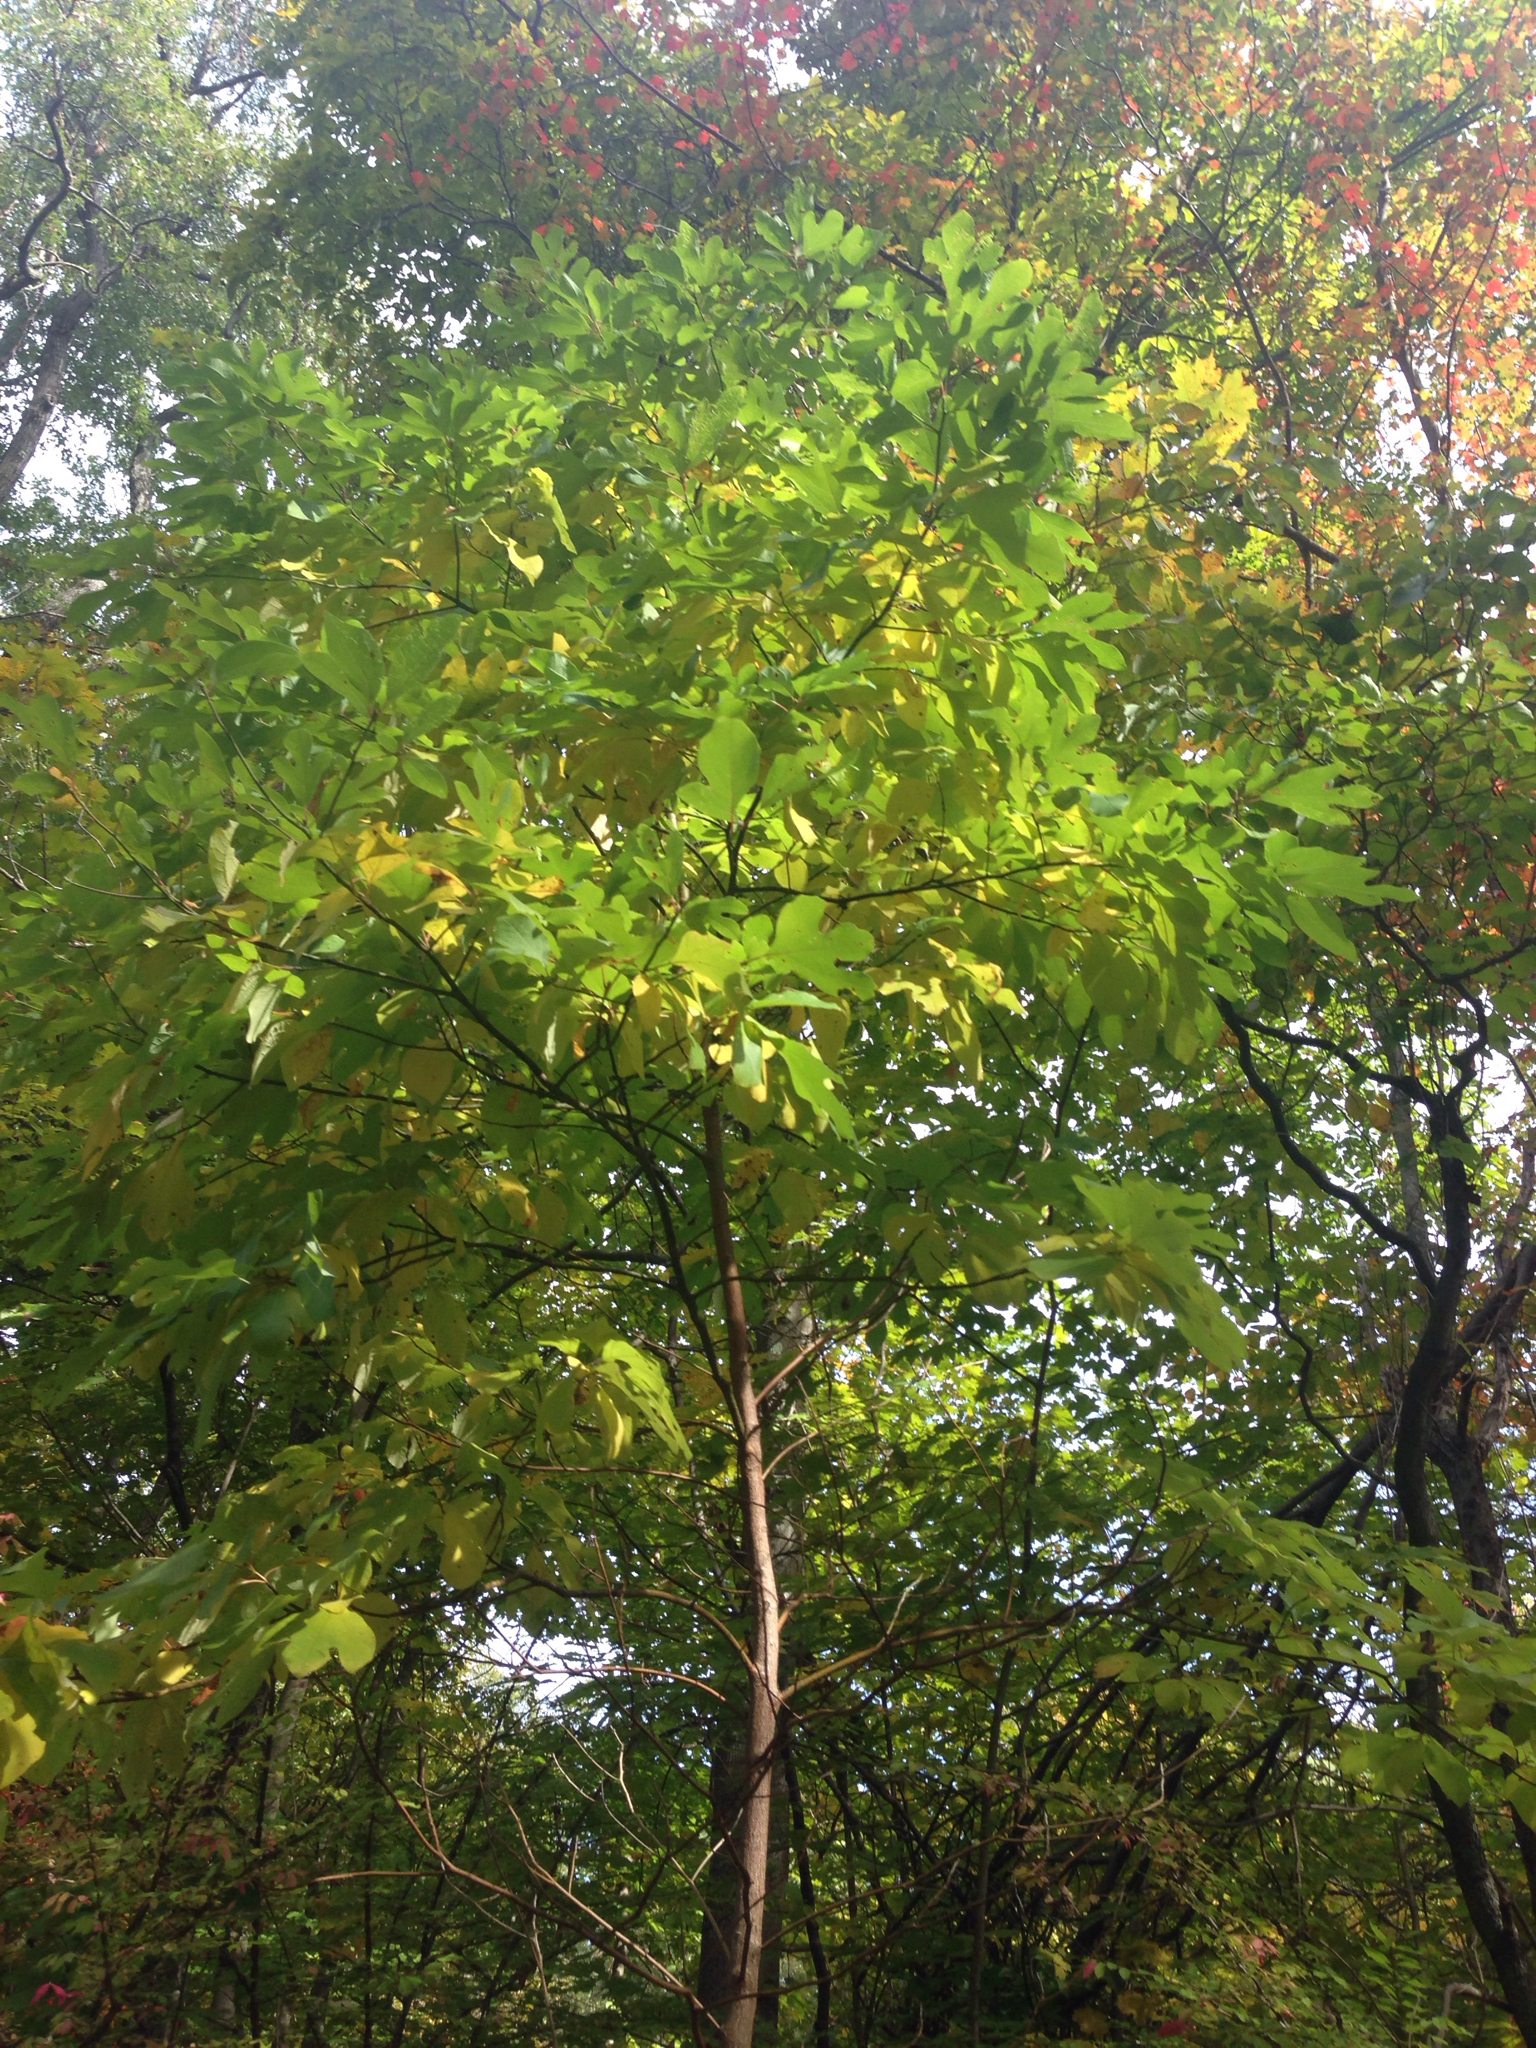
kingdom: Plantae
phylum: Tracheophyta
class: Magnoliopsida
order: Laurales
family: Lauraceae
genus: Sassafras
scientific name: Sassafras albidum
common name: Sassafras
